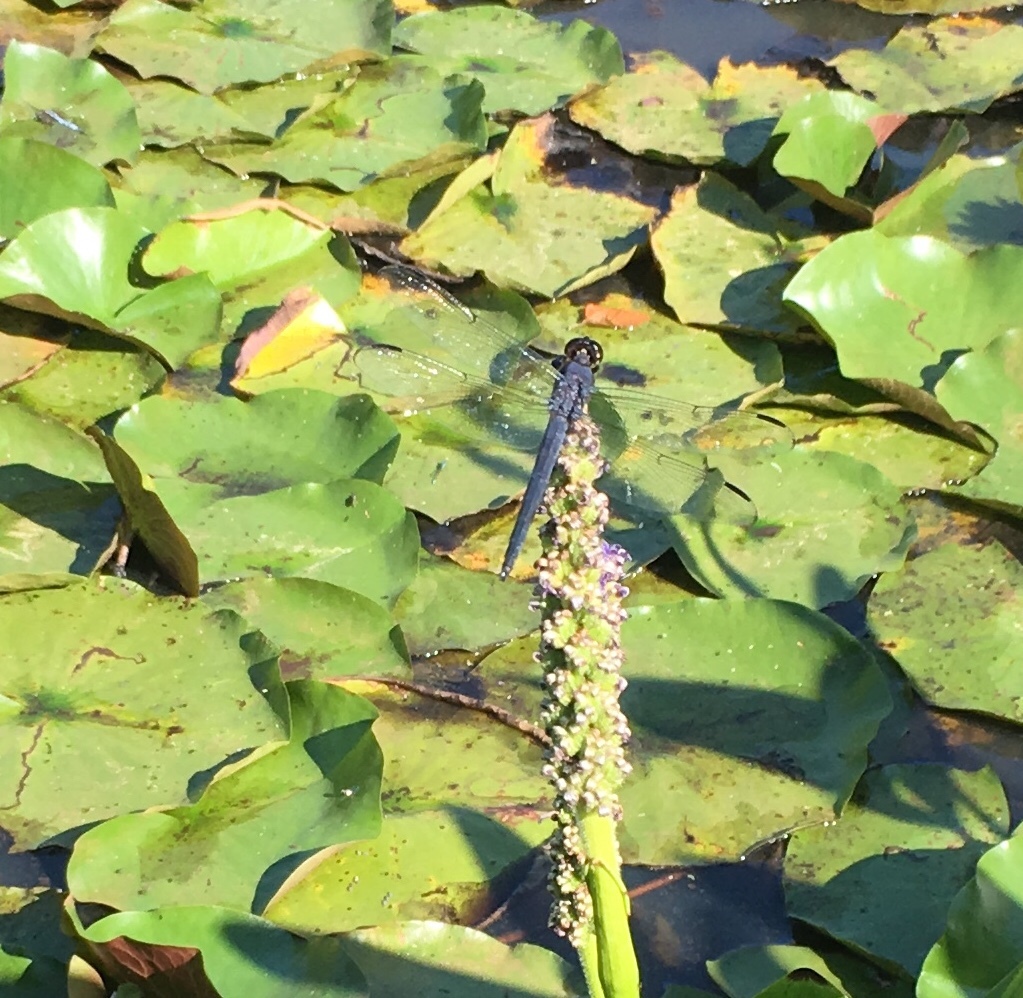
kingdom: Animalia
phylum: Arthropoda
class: Insecta
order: Odonata
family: Libellulidae
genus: Libellula
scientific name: Libellula incesta
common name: Slaty skimmer
